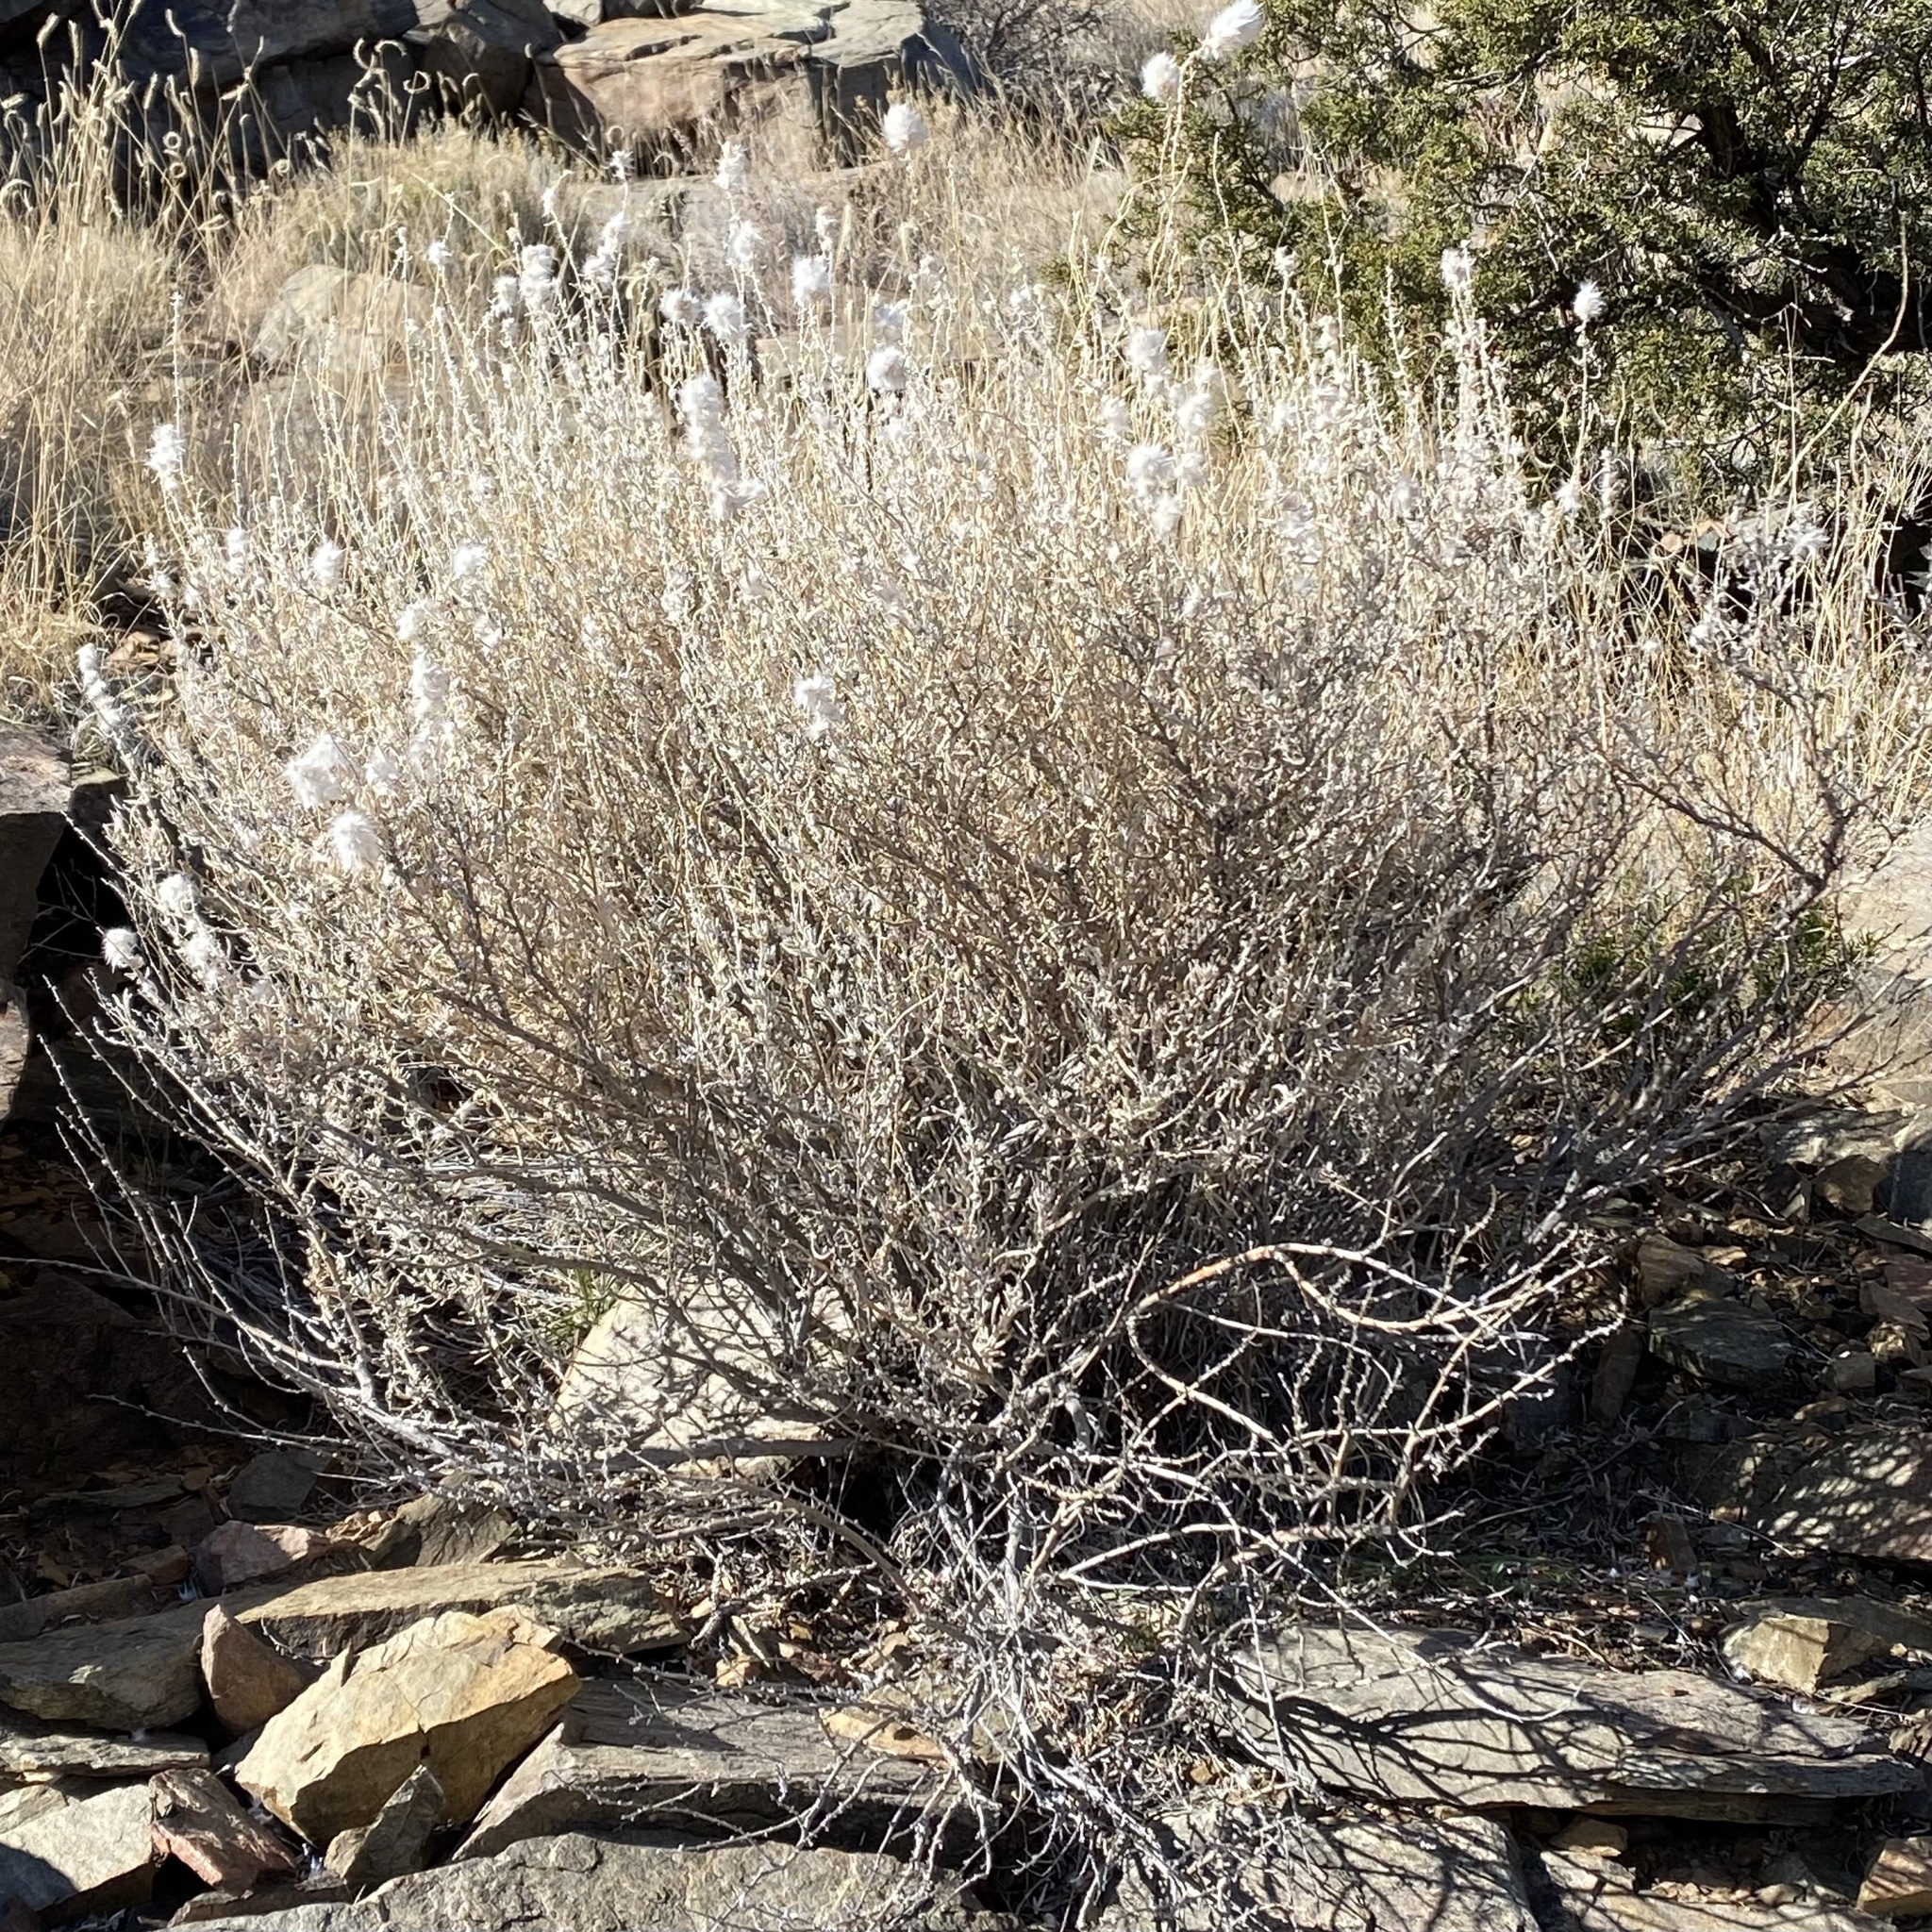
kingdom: Plantae
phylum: Tracheophyta
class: Magnoliopsida
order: Caryophyllales
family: Amaranthaceae
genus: Krascheninnikovia
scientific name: Krascheninnikovia lanata
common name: Winterfat
